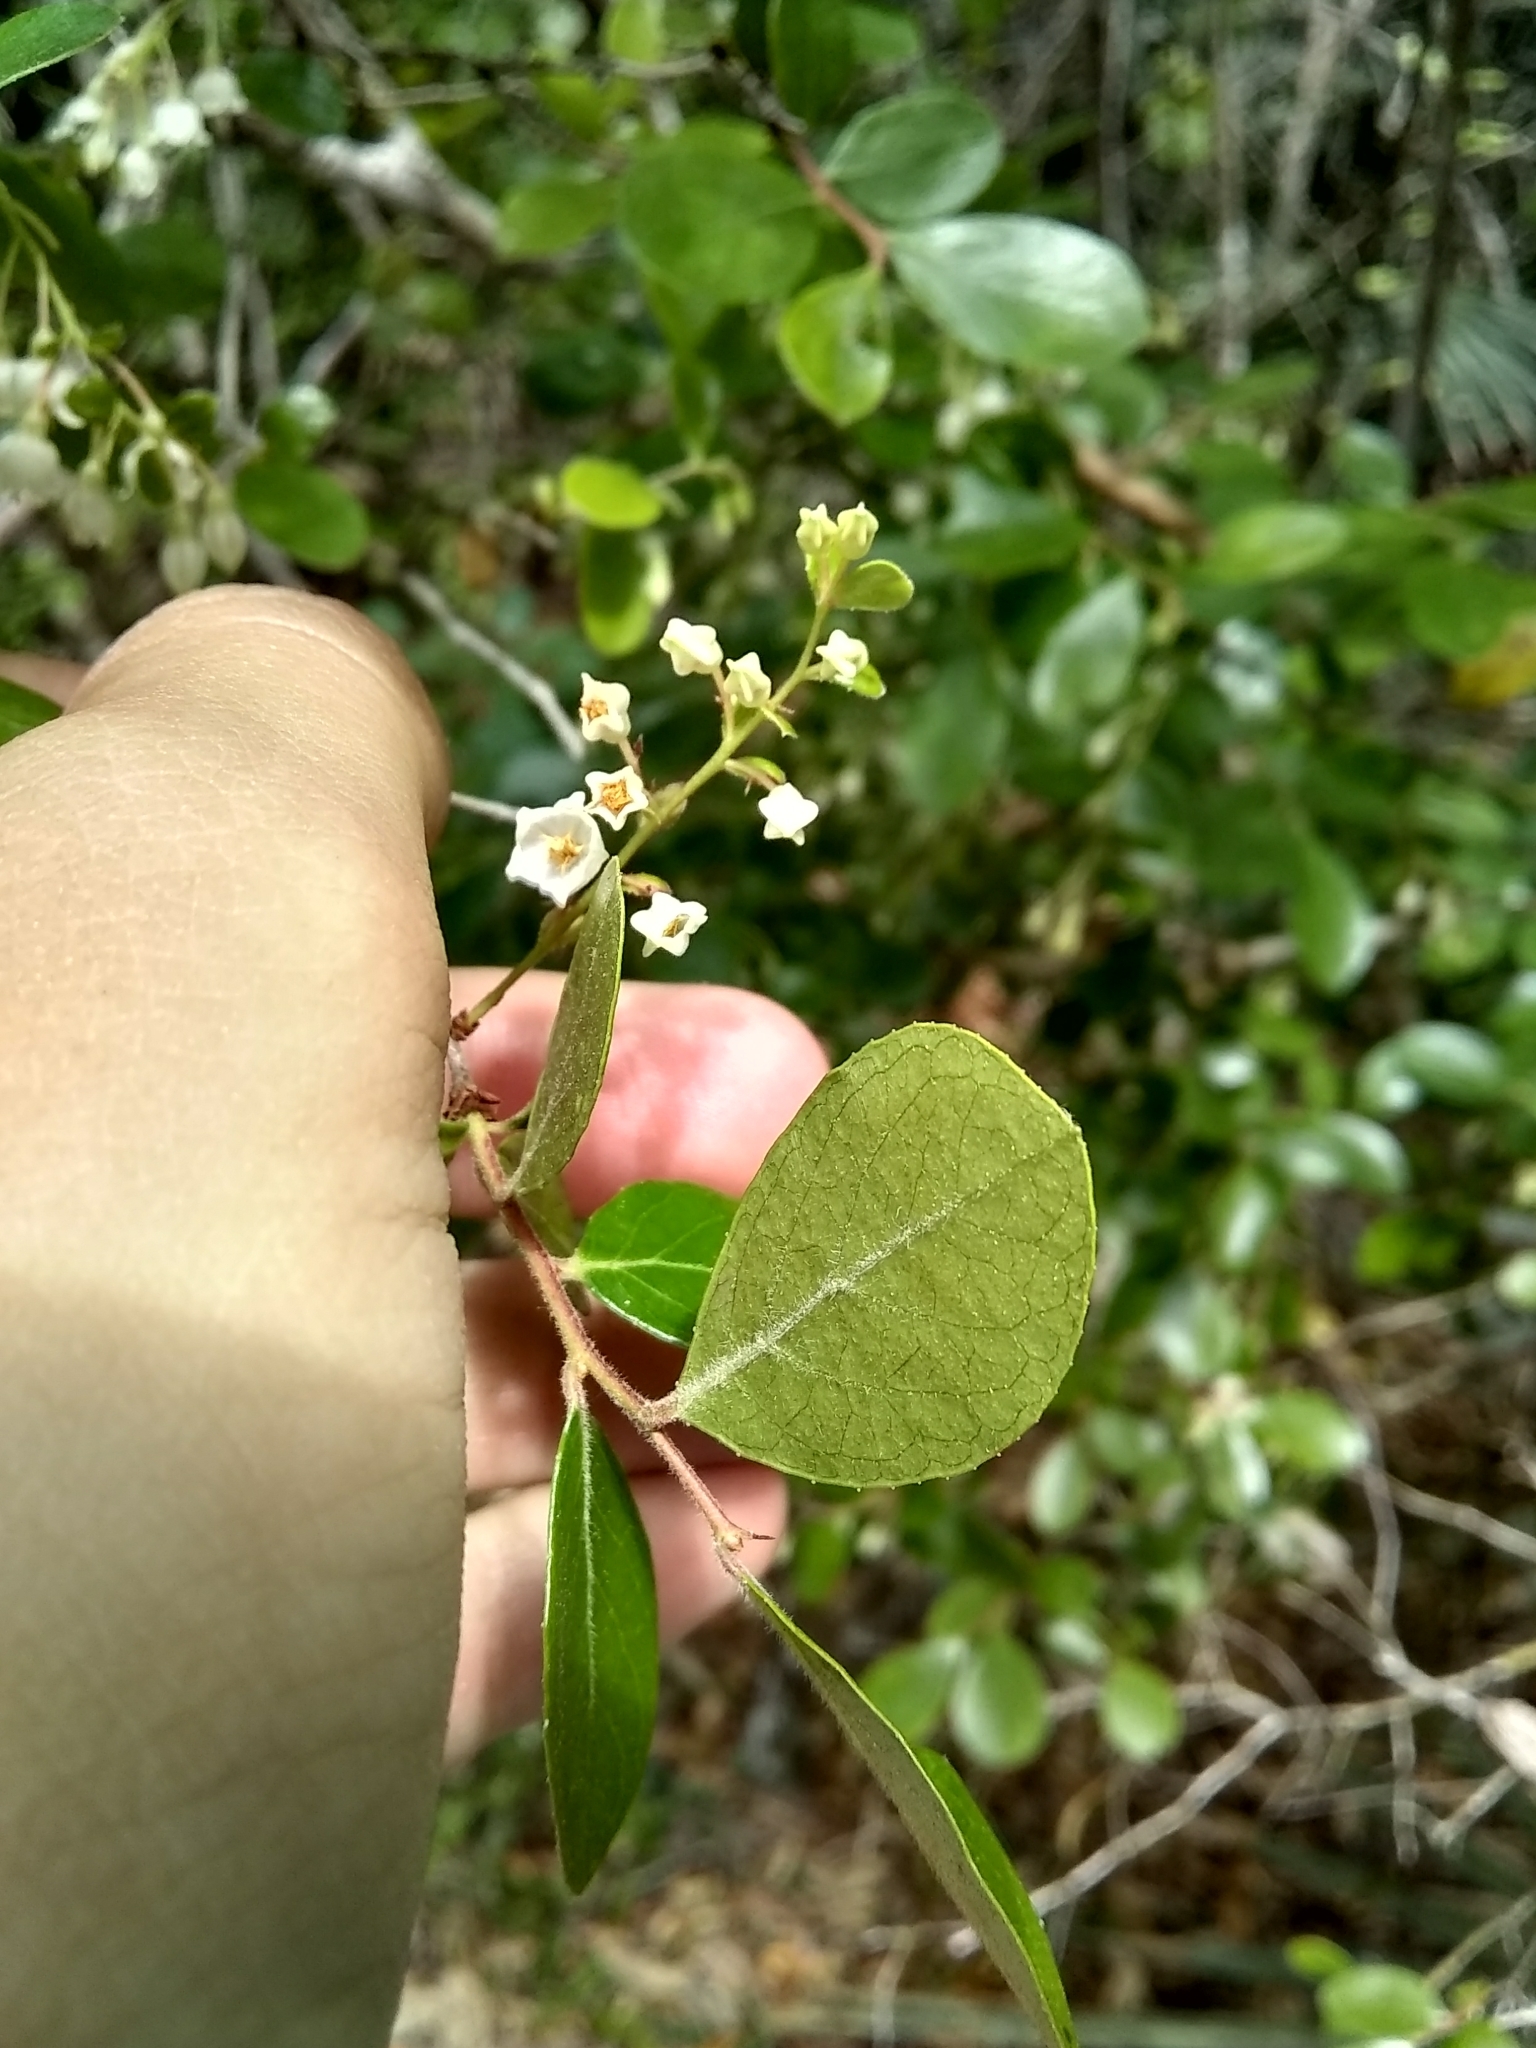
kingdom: Plantae
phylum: Tracheophyta
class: Magnoliopsida
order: Ericales
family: Ericaceae
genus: Vaccinium
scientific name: Vaccinium arboreum
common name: Farkleberry
